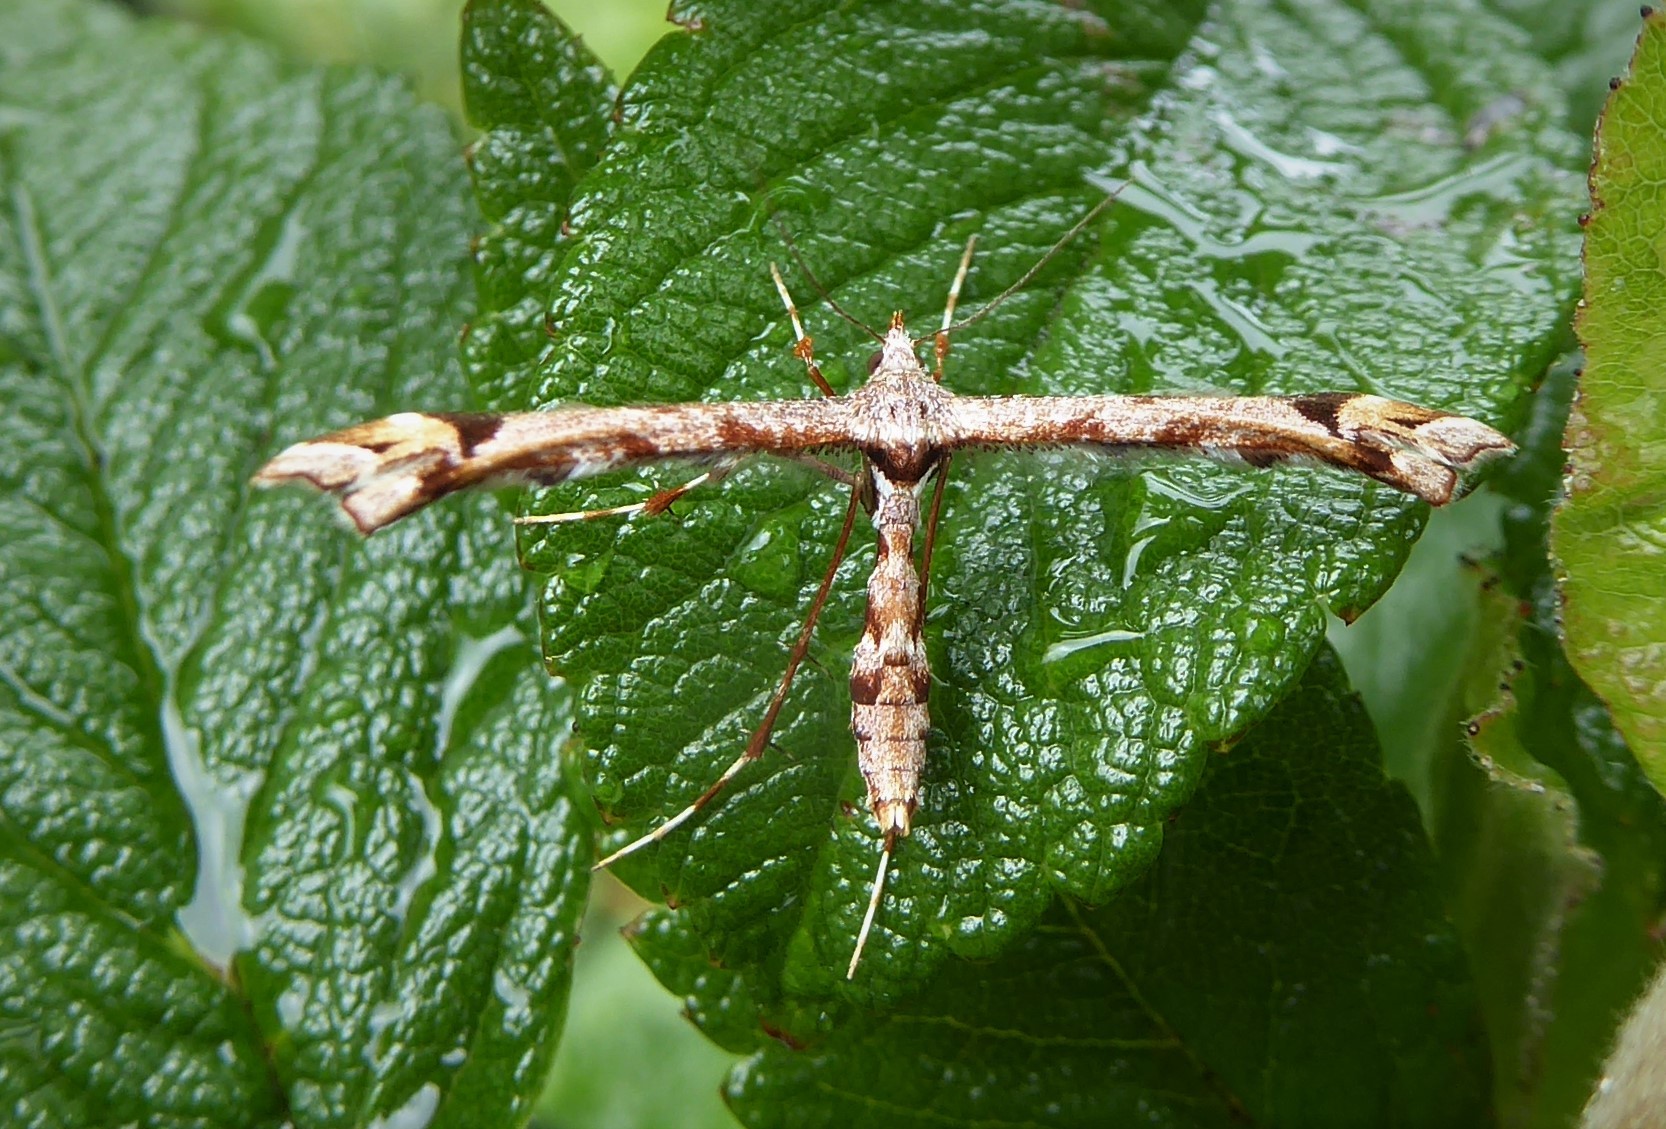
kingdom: Animalia
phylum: Arthropoda
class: Insecta
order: Lepidoptera
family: Pterophoridae
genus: Amblyptilia
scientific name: Amblyptilia falcatalis
